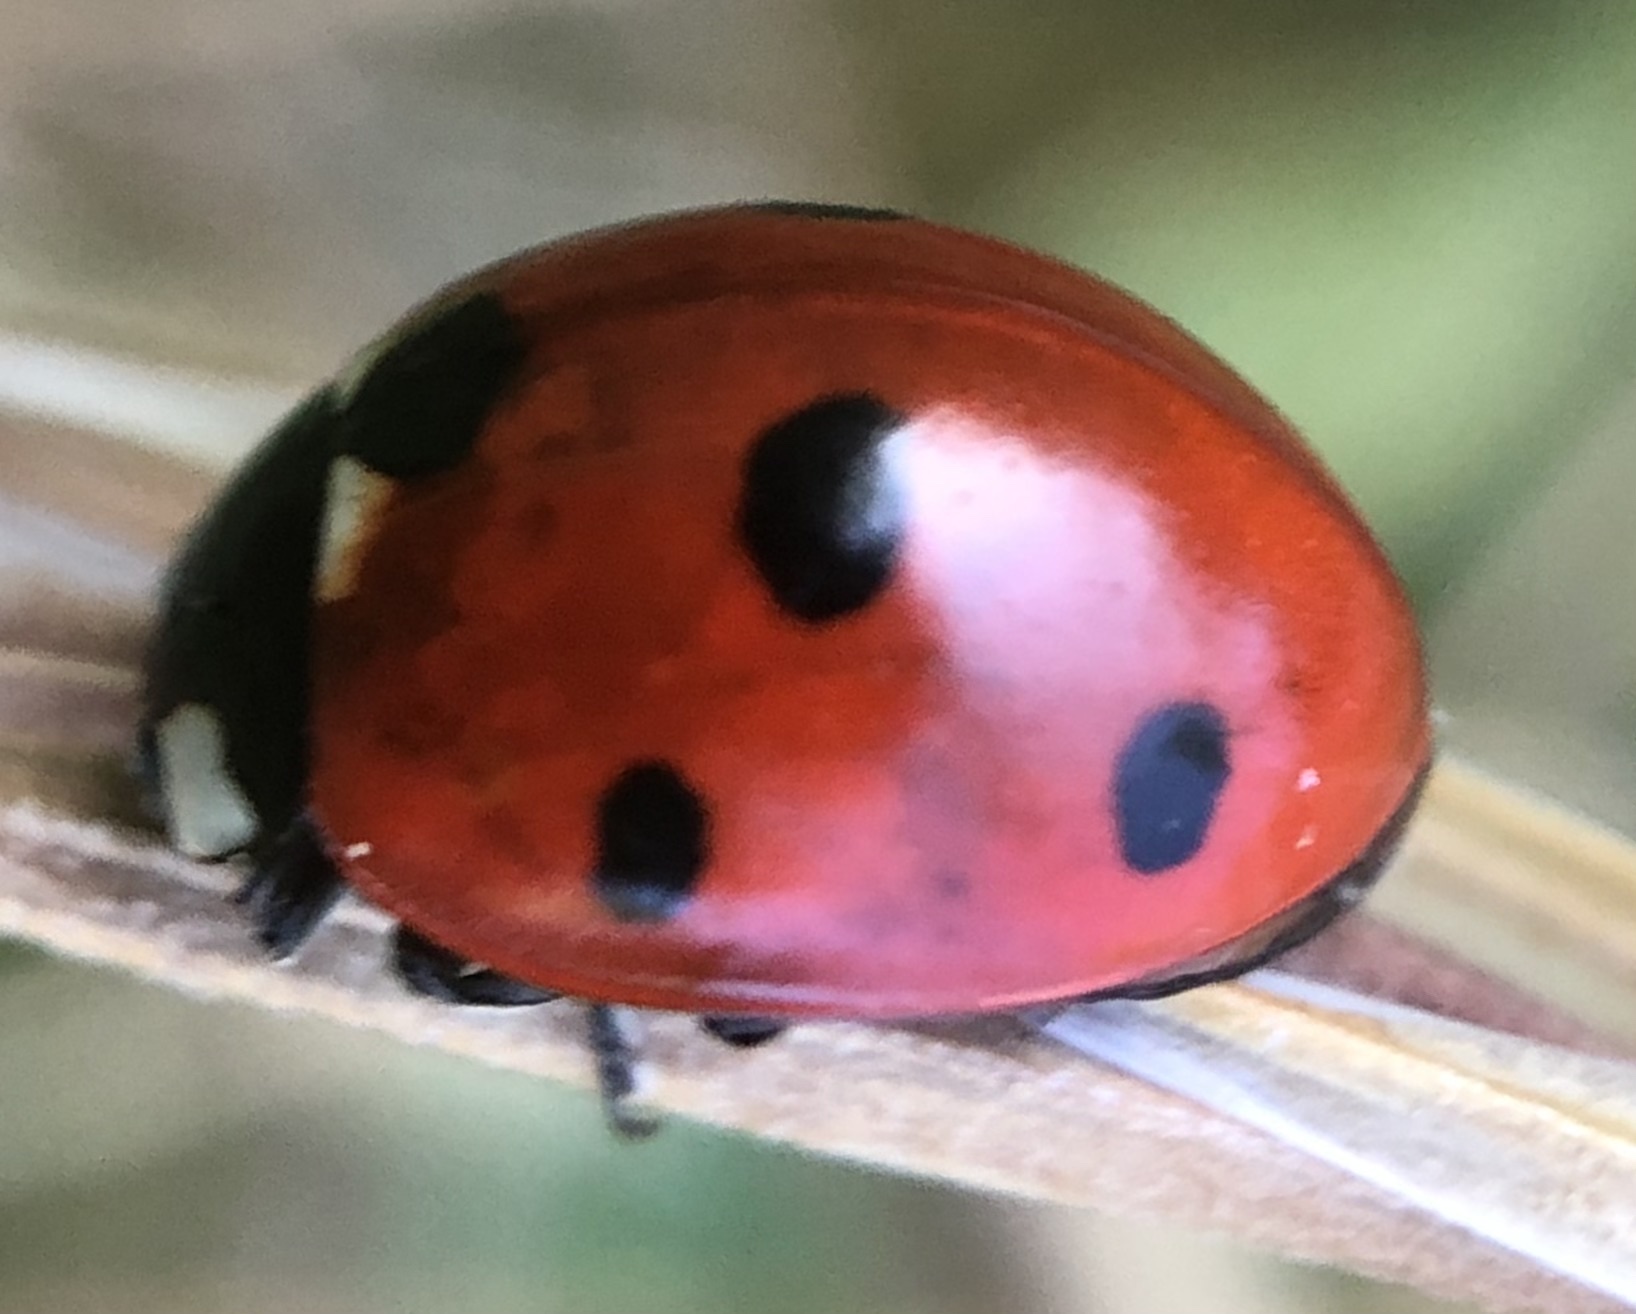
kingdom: Animalia
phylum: Arthropoda
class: Insecta
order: Coleoptera
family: Coccinellidae
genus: Coccinella
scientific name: Coccinella septempunctata
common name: Sevenspotted lady beetle
